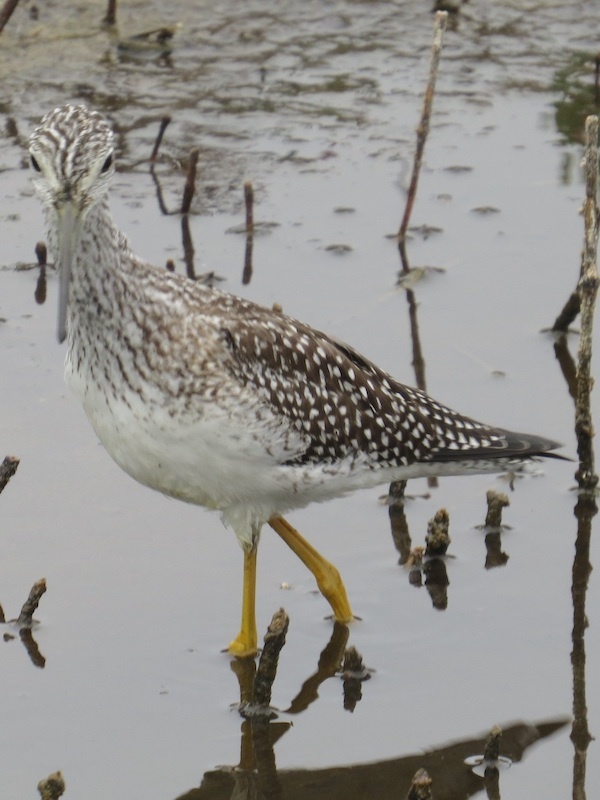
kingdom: Animalia
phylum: Chordata
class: Aves
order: Charadriiformes
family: Scolopacidae
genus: Tringa
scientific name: Tringa melanoleuca
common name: Greater yellowlegs
